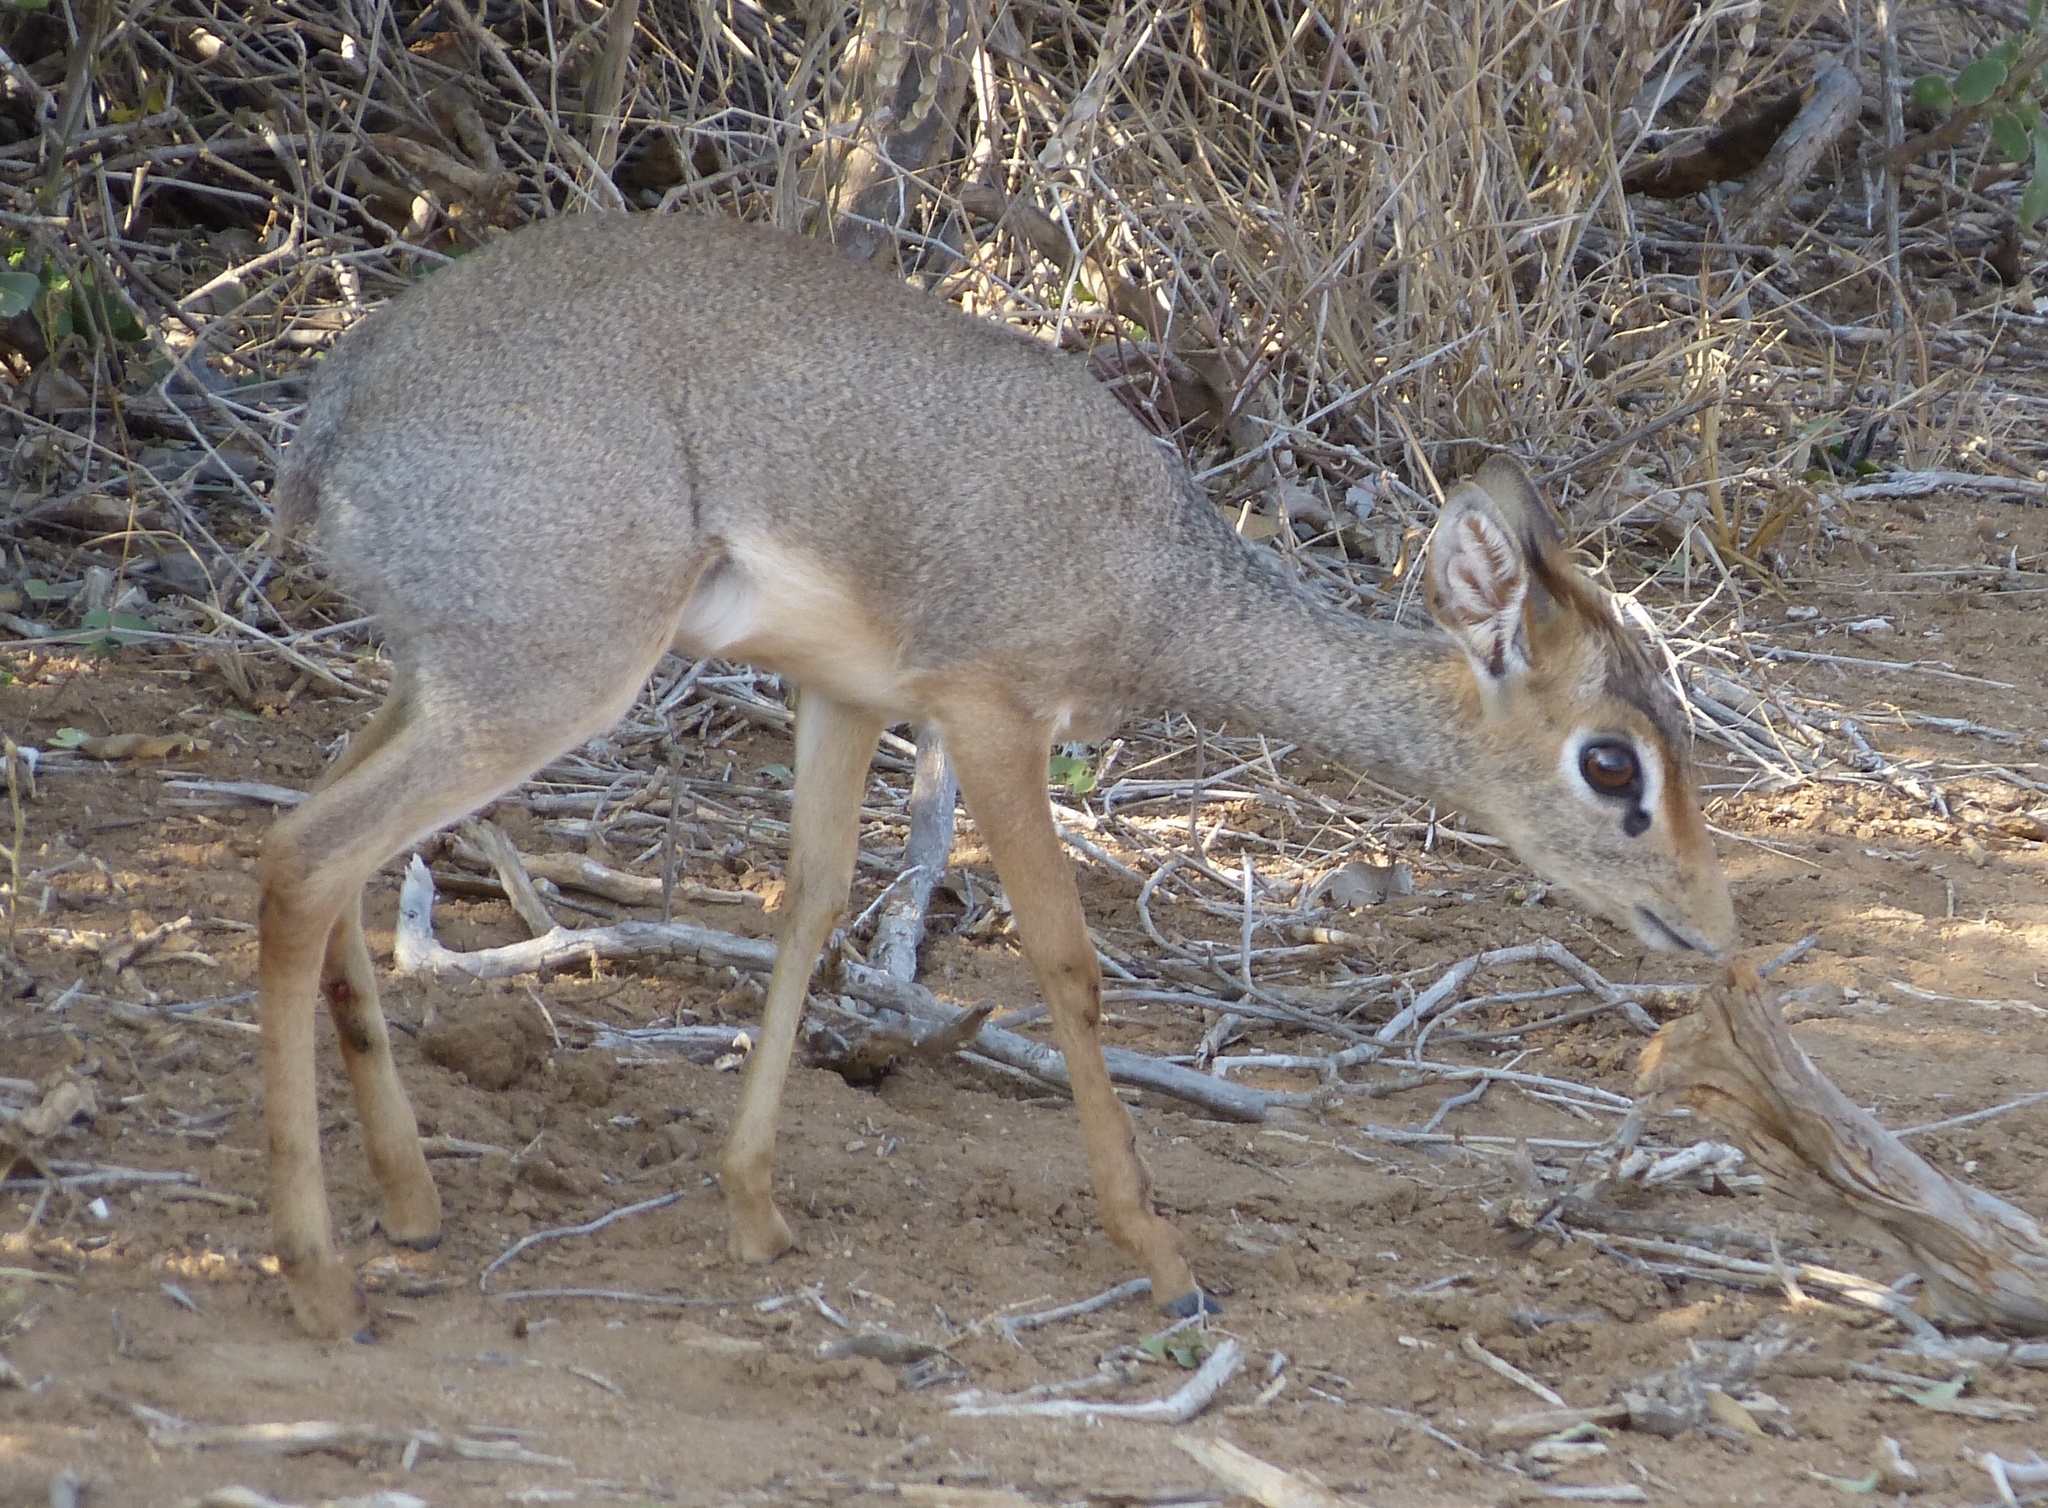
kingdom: Animalia
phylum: Chordata
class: Mammalia
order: Artiodactyla
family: Bovidae
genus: Madoqua
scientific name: Madoqua
